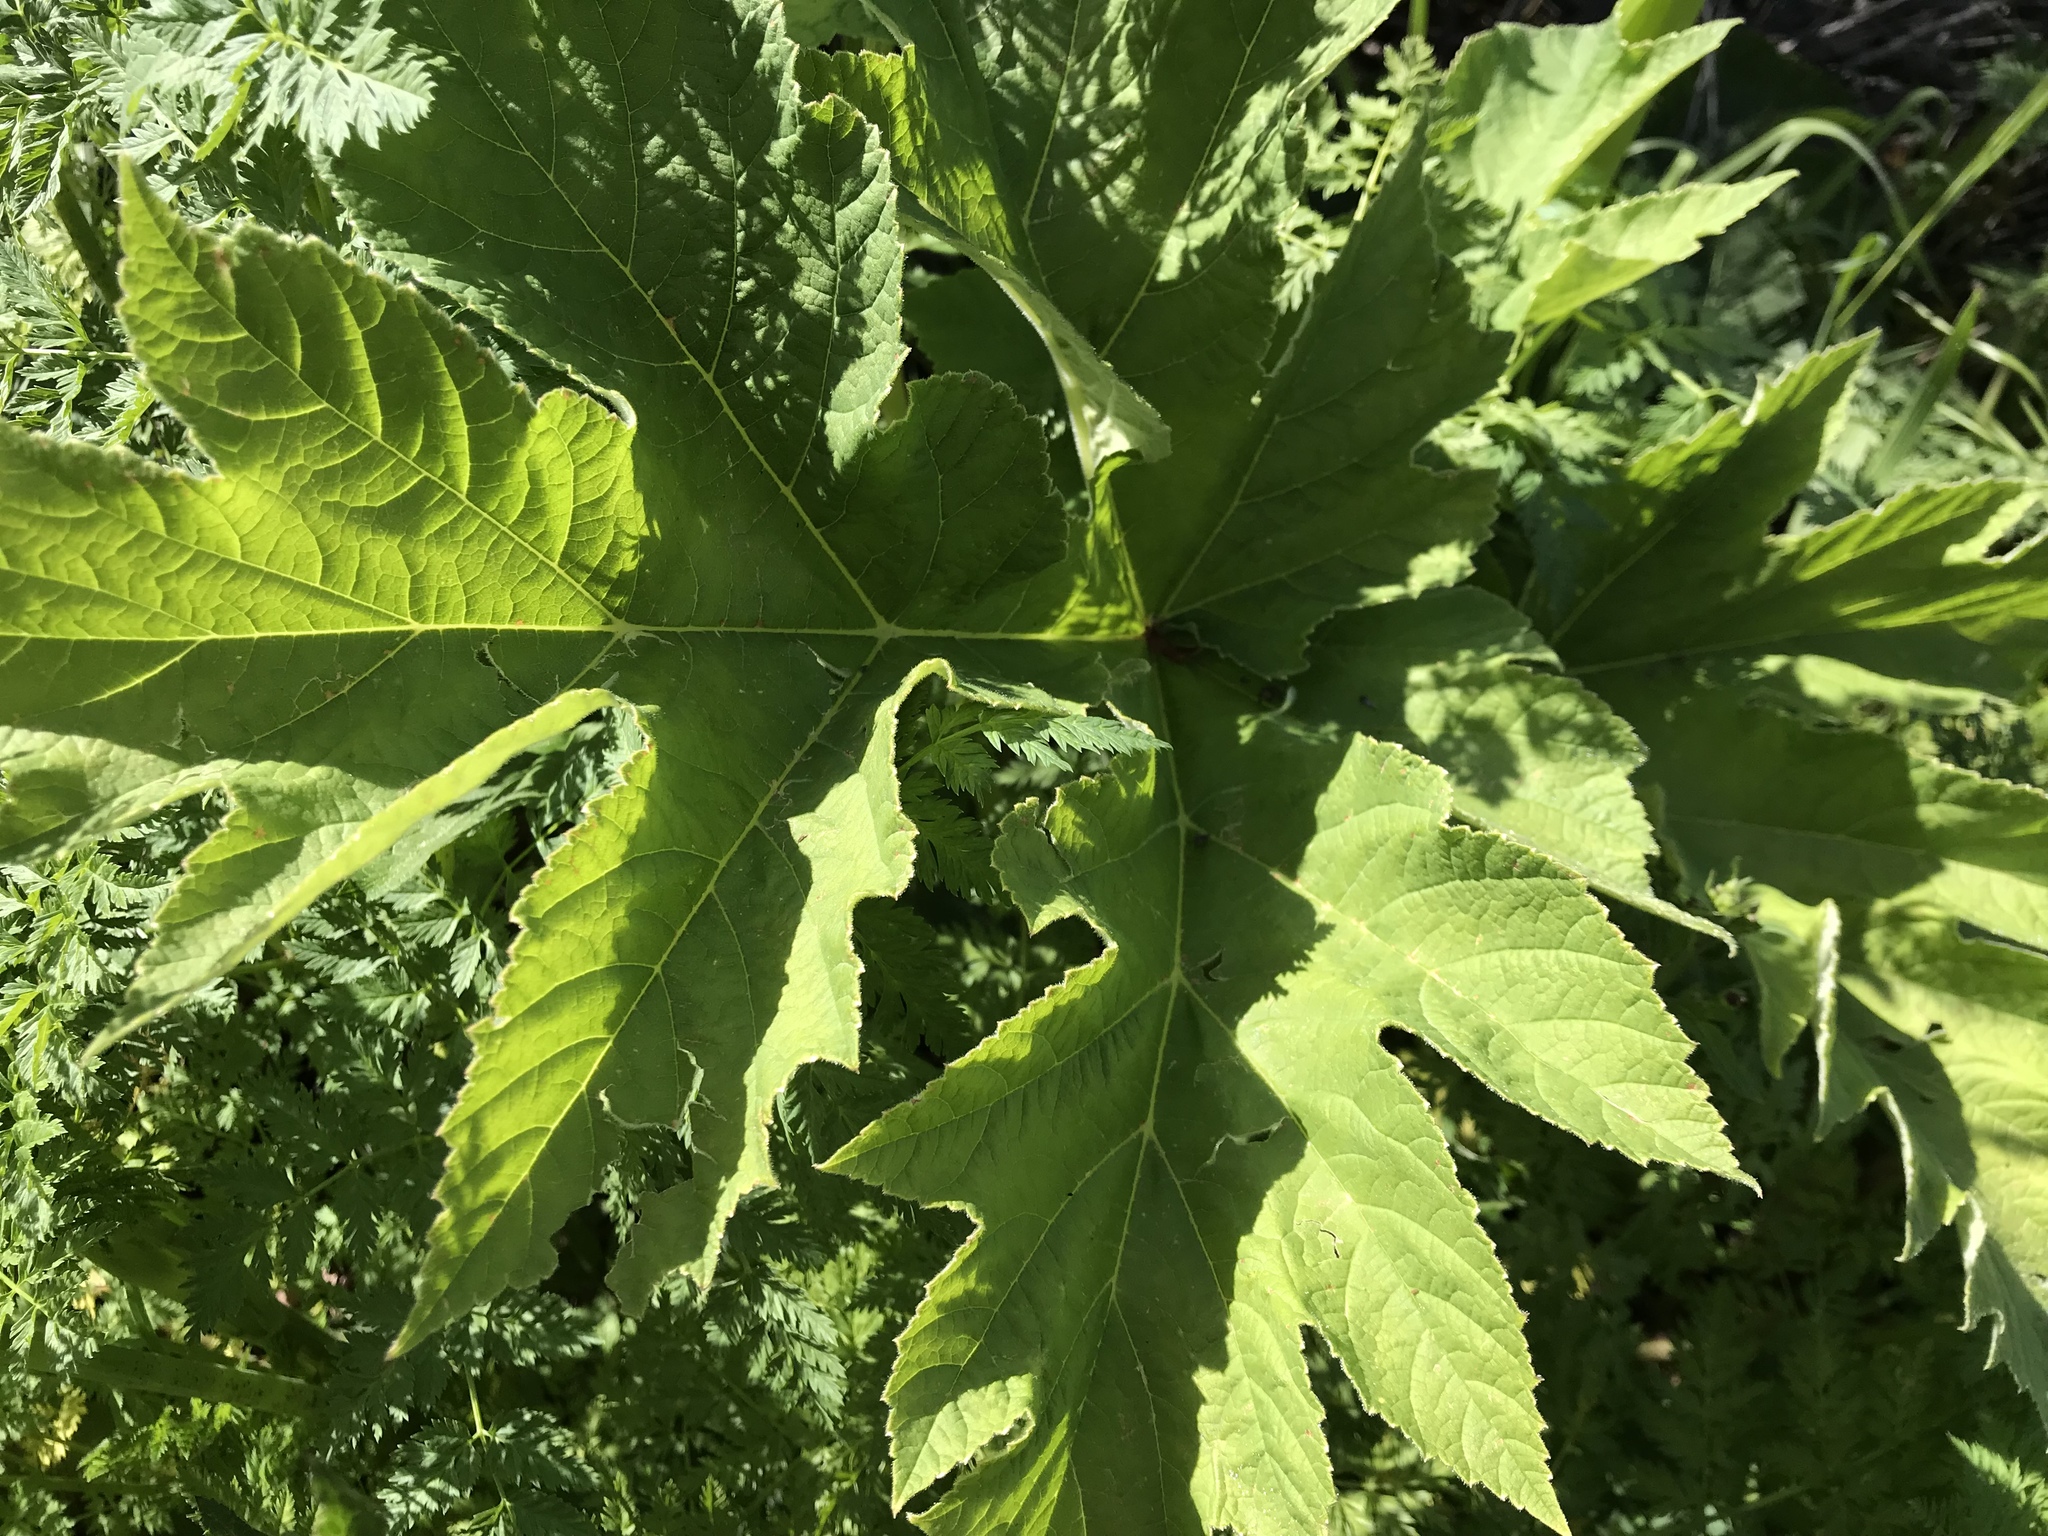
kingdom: Plantae
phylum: Tracheophyta
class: Magnoliopsida
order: Apiales
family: Apiaceae
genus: Heracleum
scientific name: Heracleum maximum
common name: American cow parsnip
